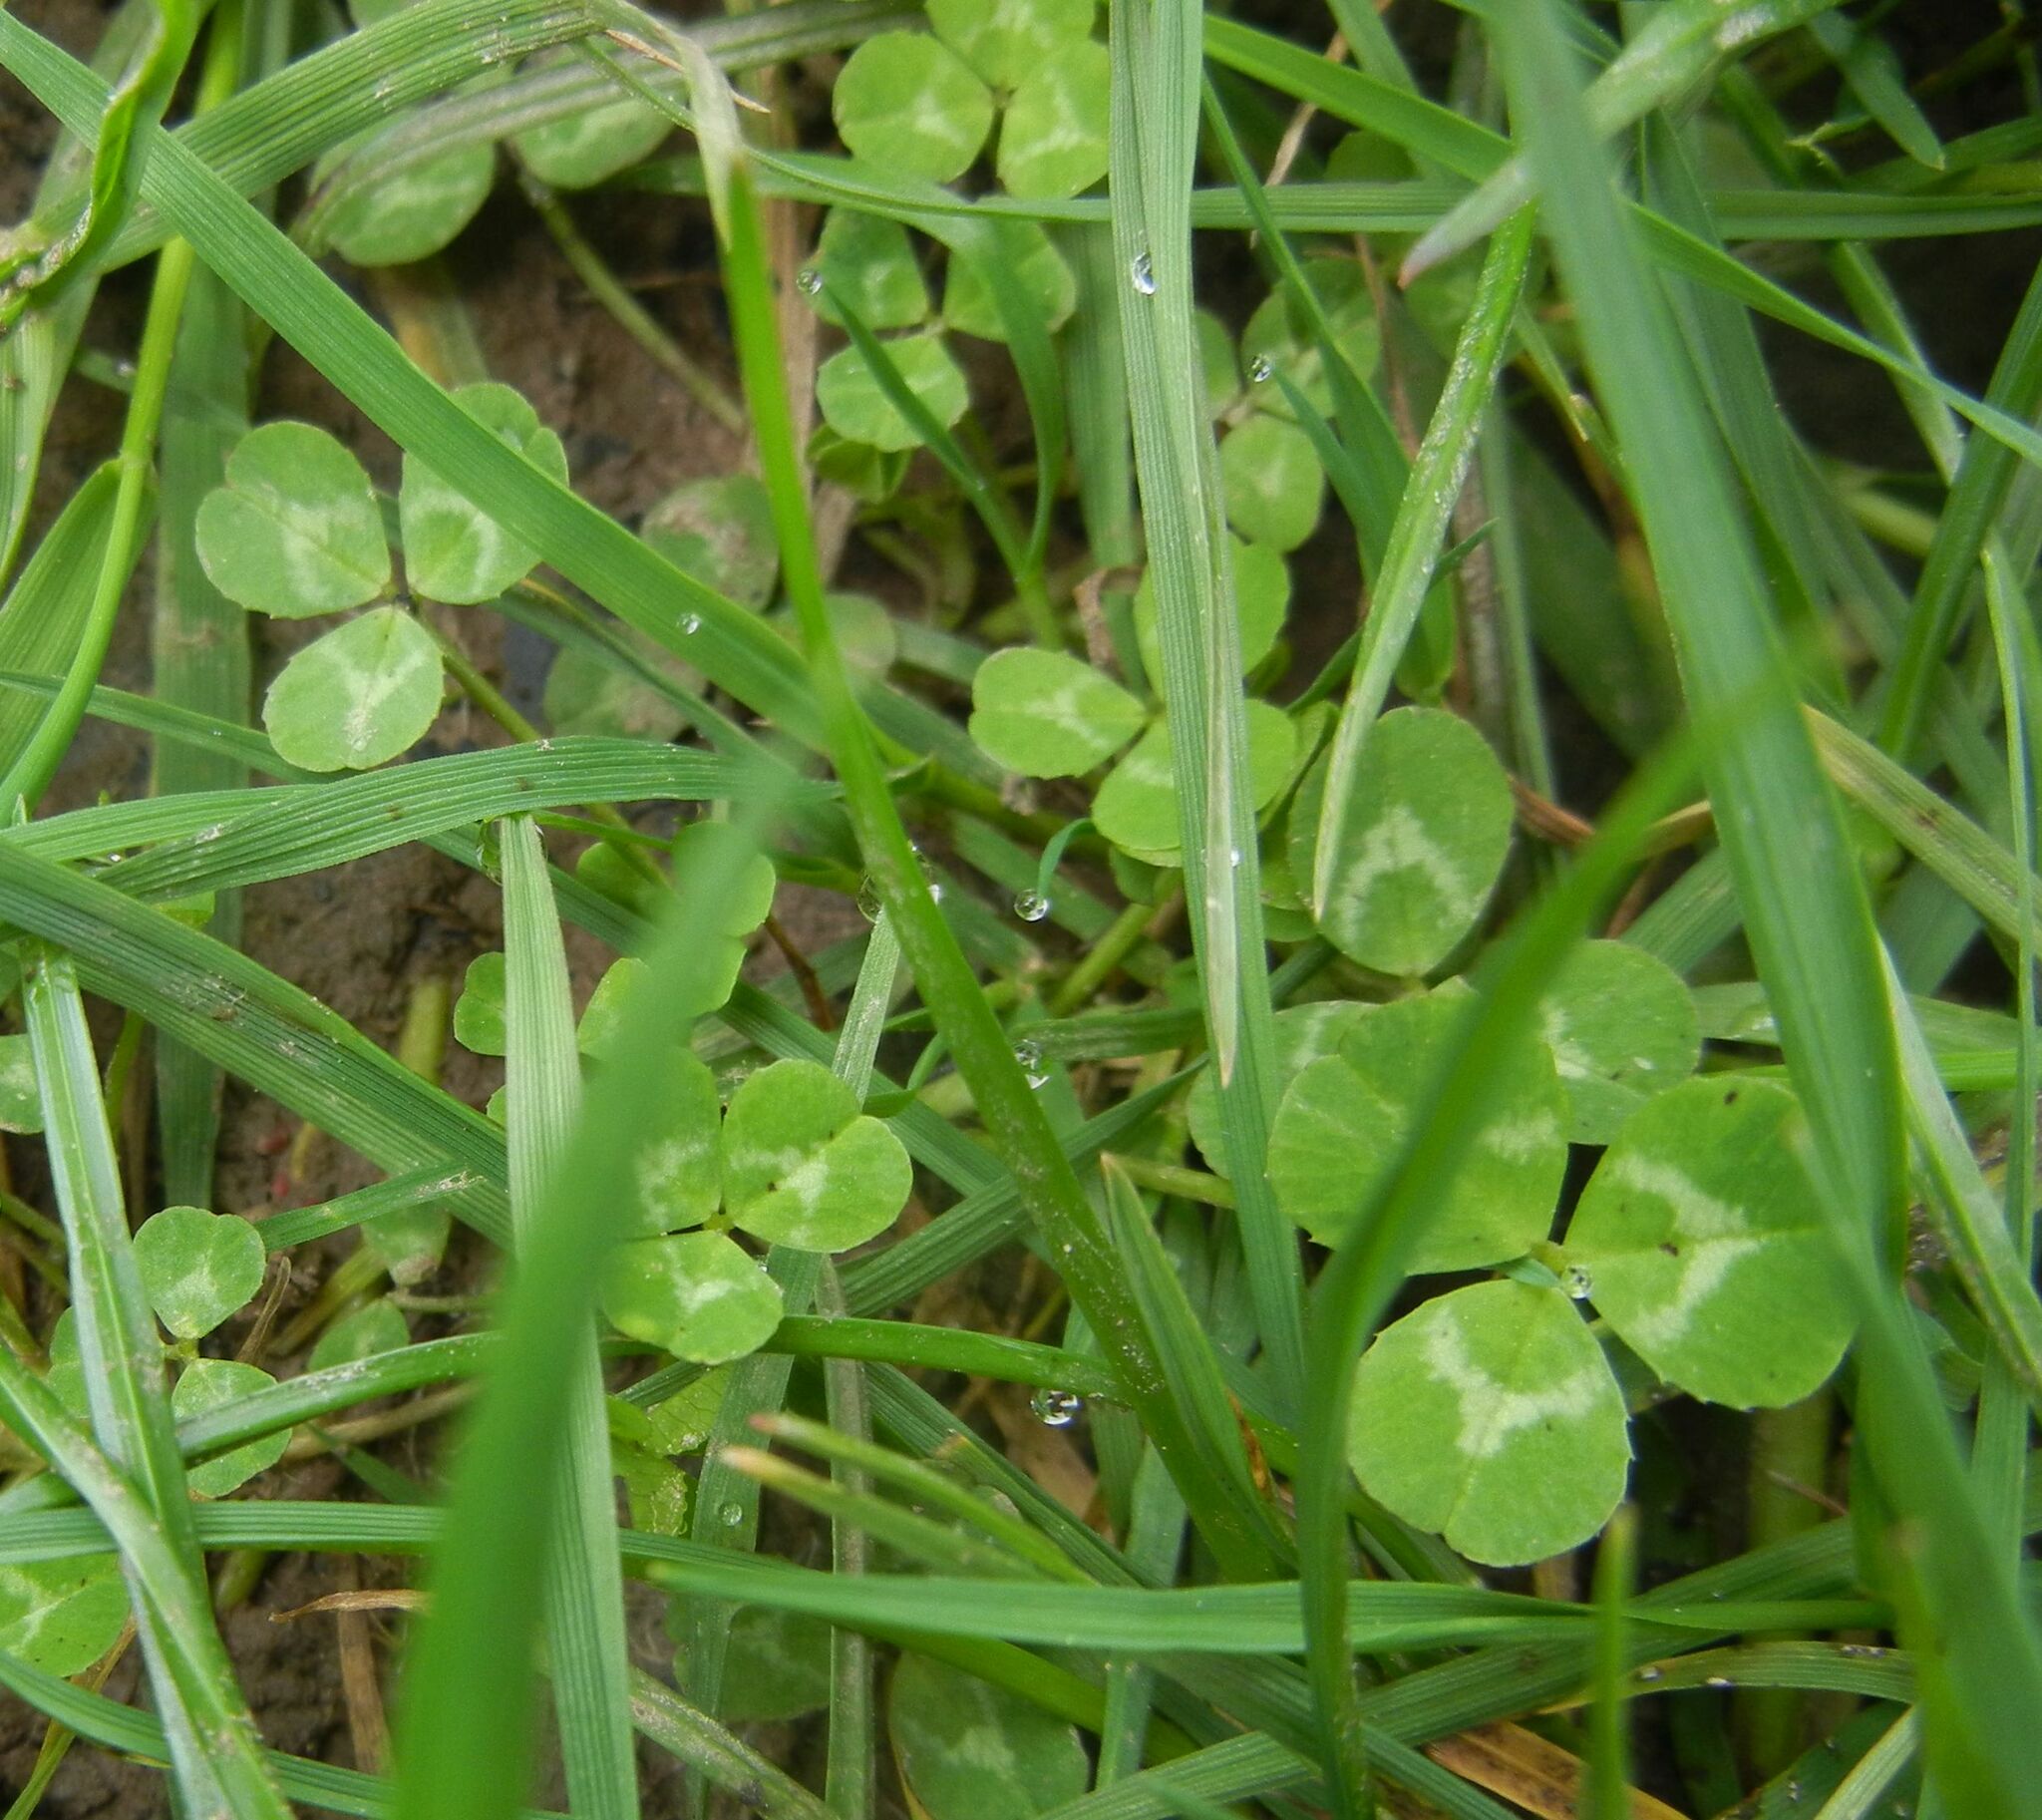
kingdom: Plantae
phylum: Tracheophyta
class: Magnoliopsida
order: Fabales
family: Fabaceae
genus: Trifolium
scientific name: Trifolium repens
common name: White clover
